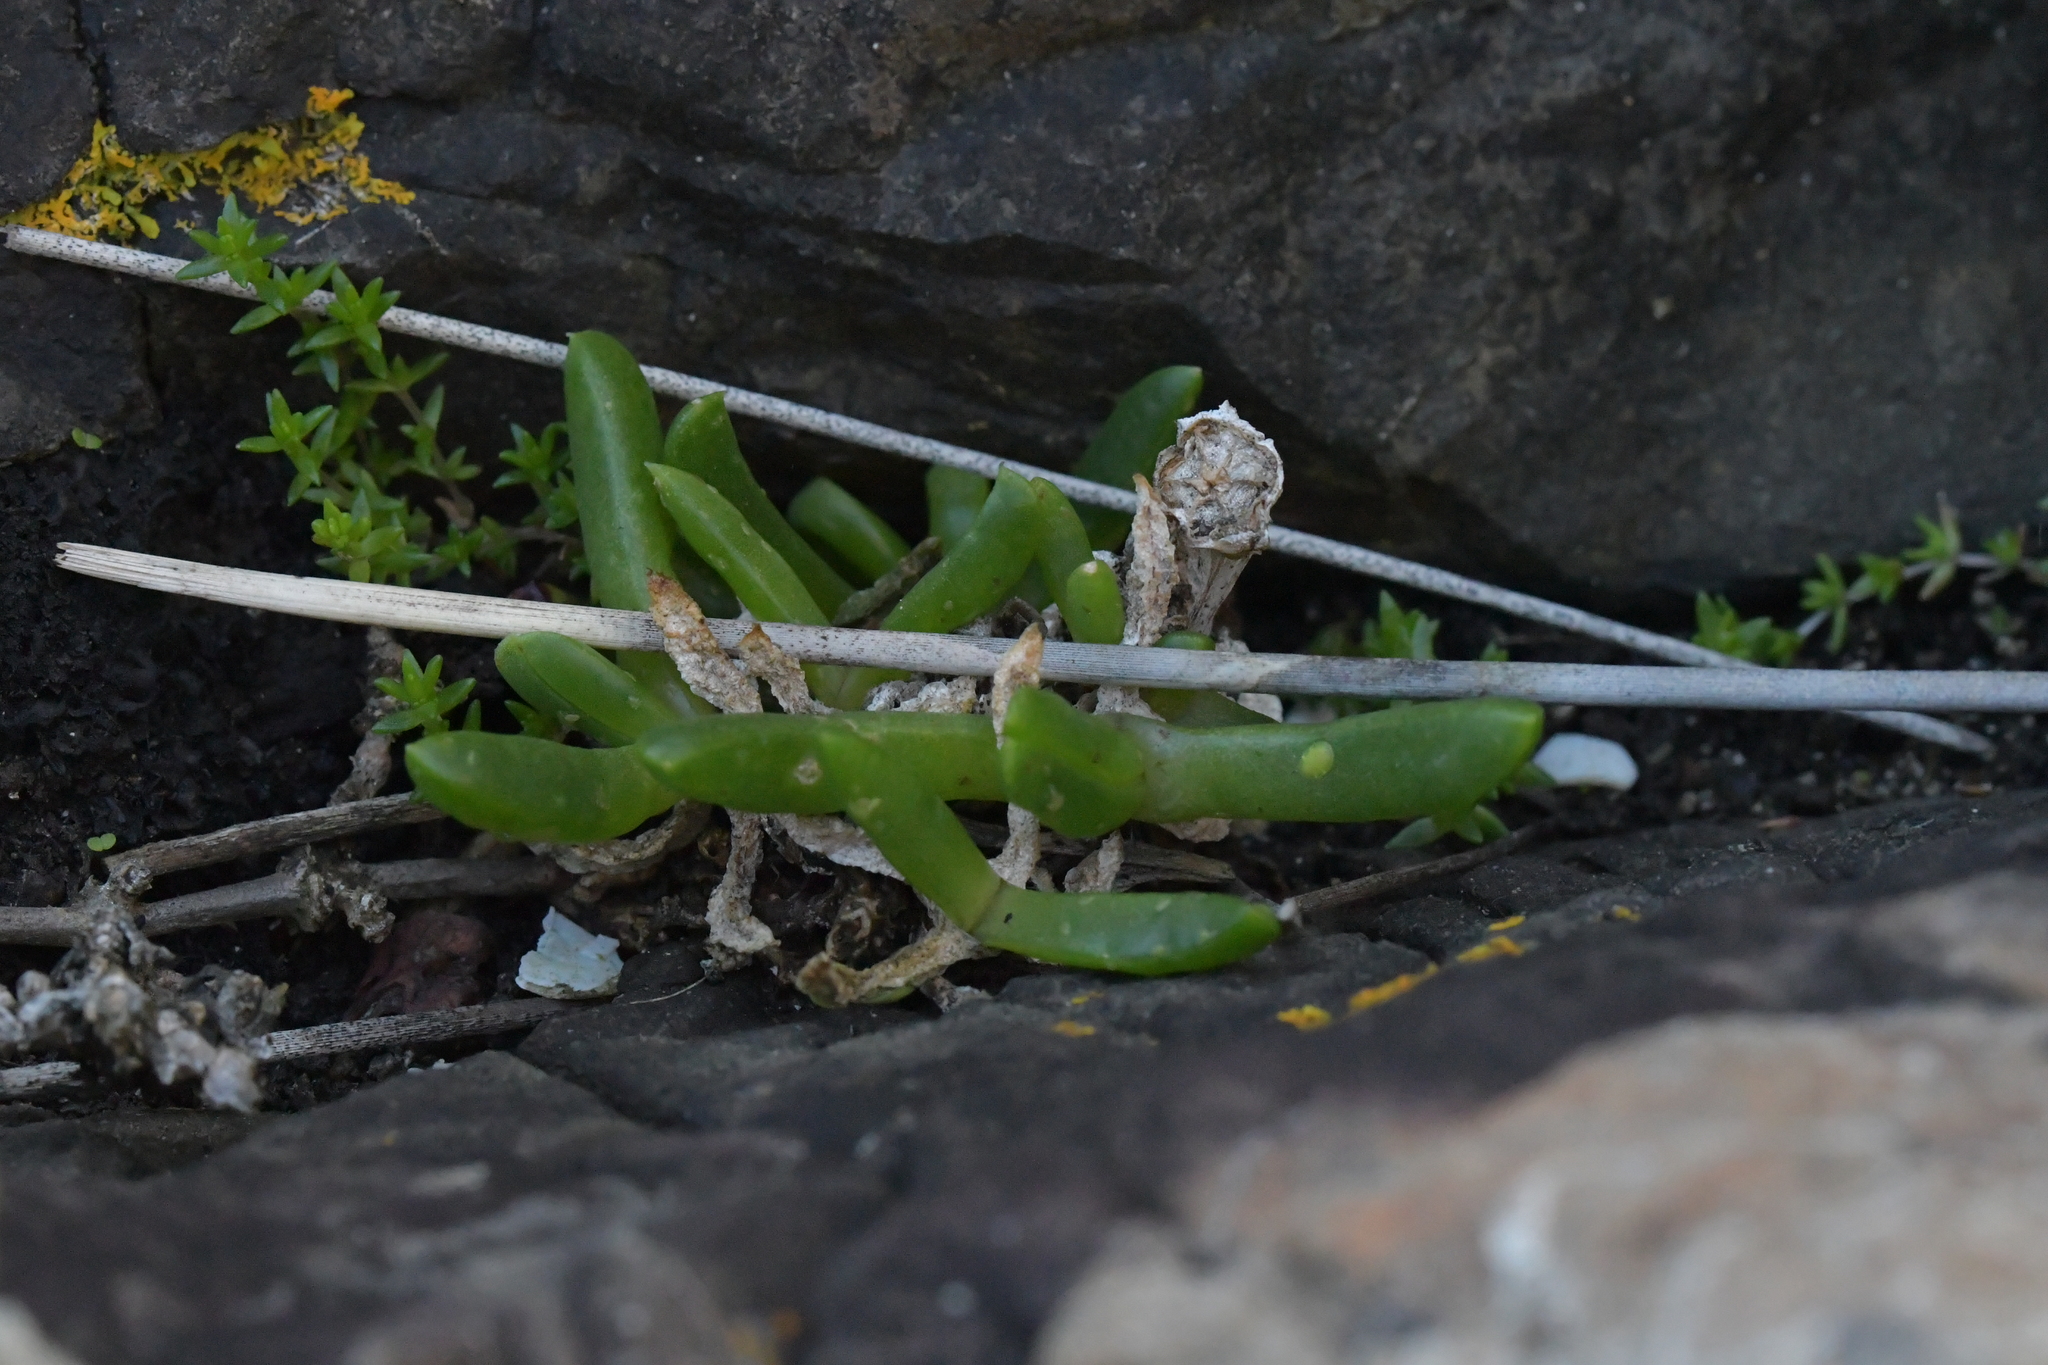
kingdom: Plantae
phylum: Tracheophyta
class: Magnoliopsida
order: Caryophyllales
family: Aizoaceae
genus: Disphyma
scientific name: Disphyma australe
